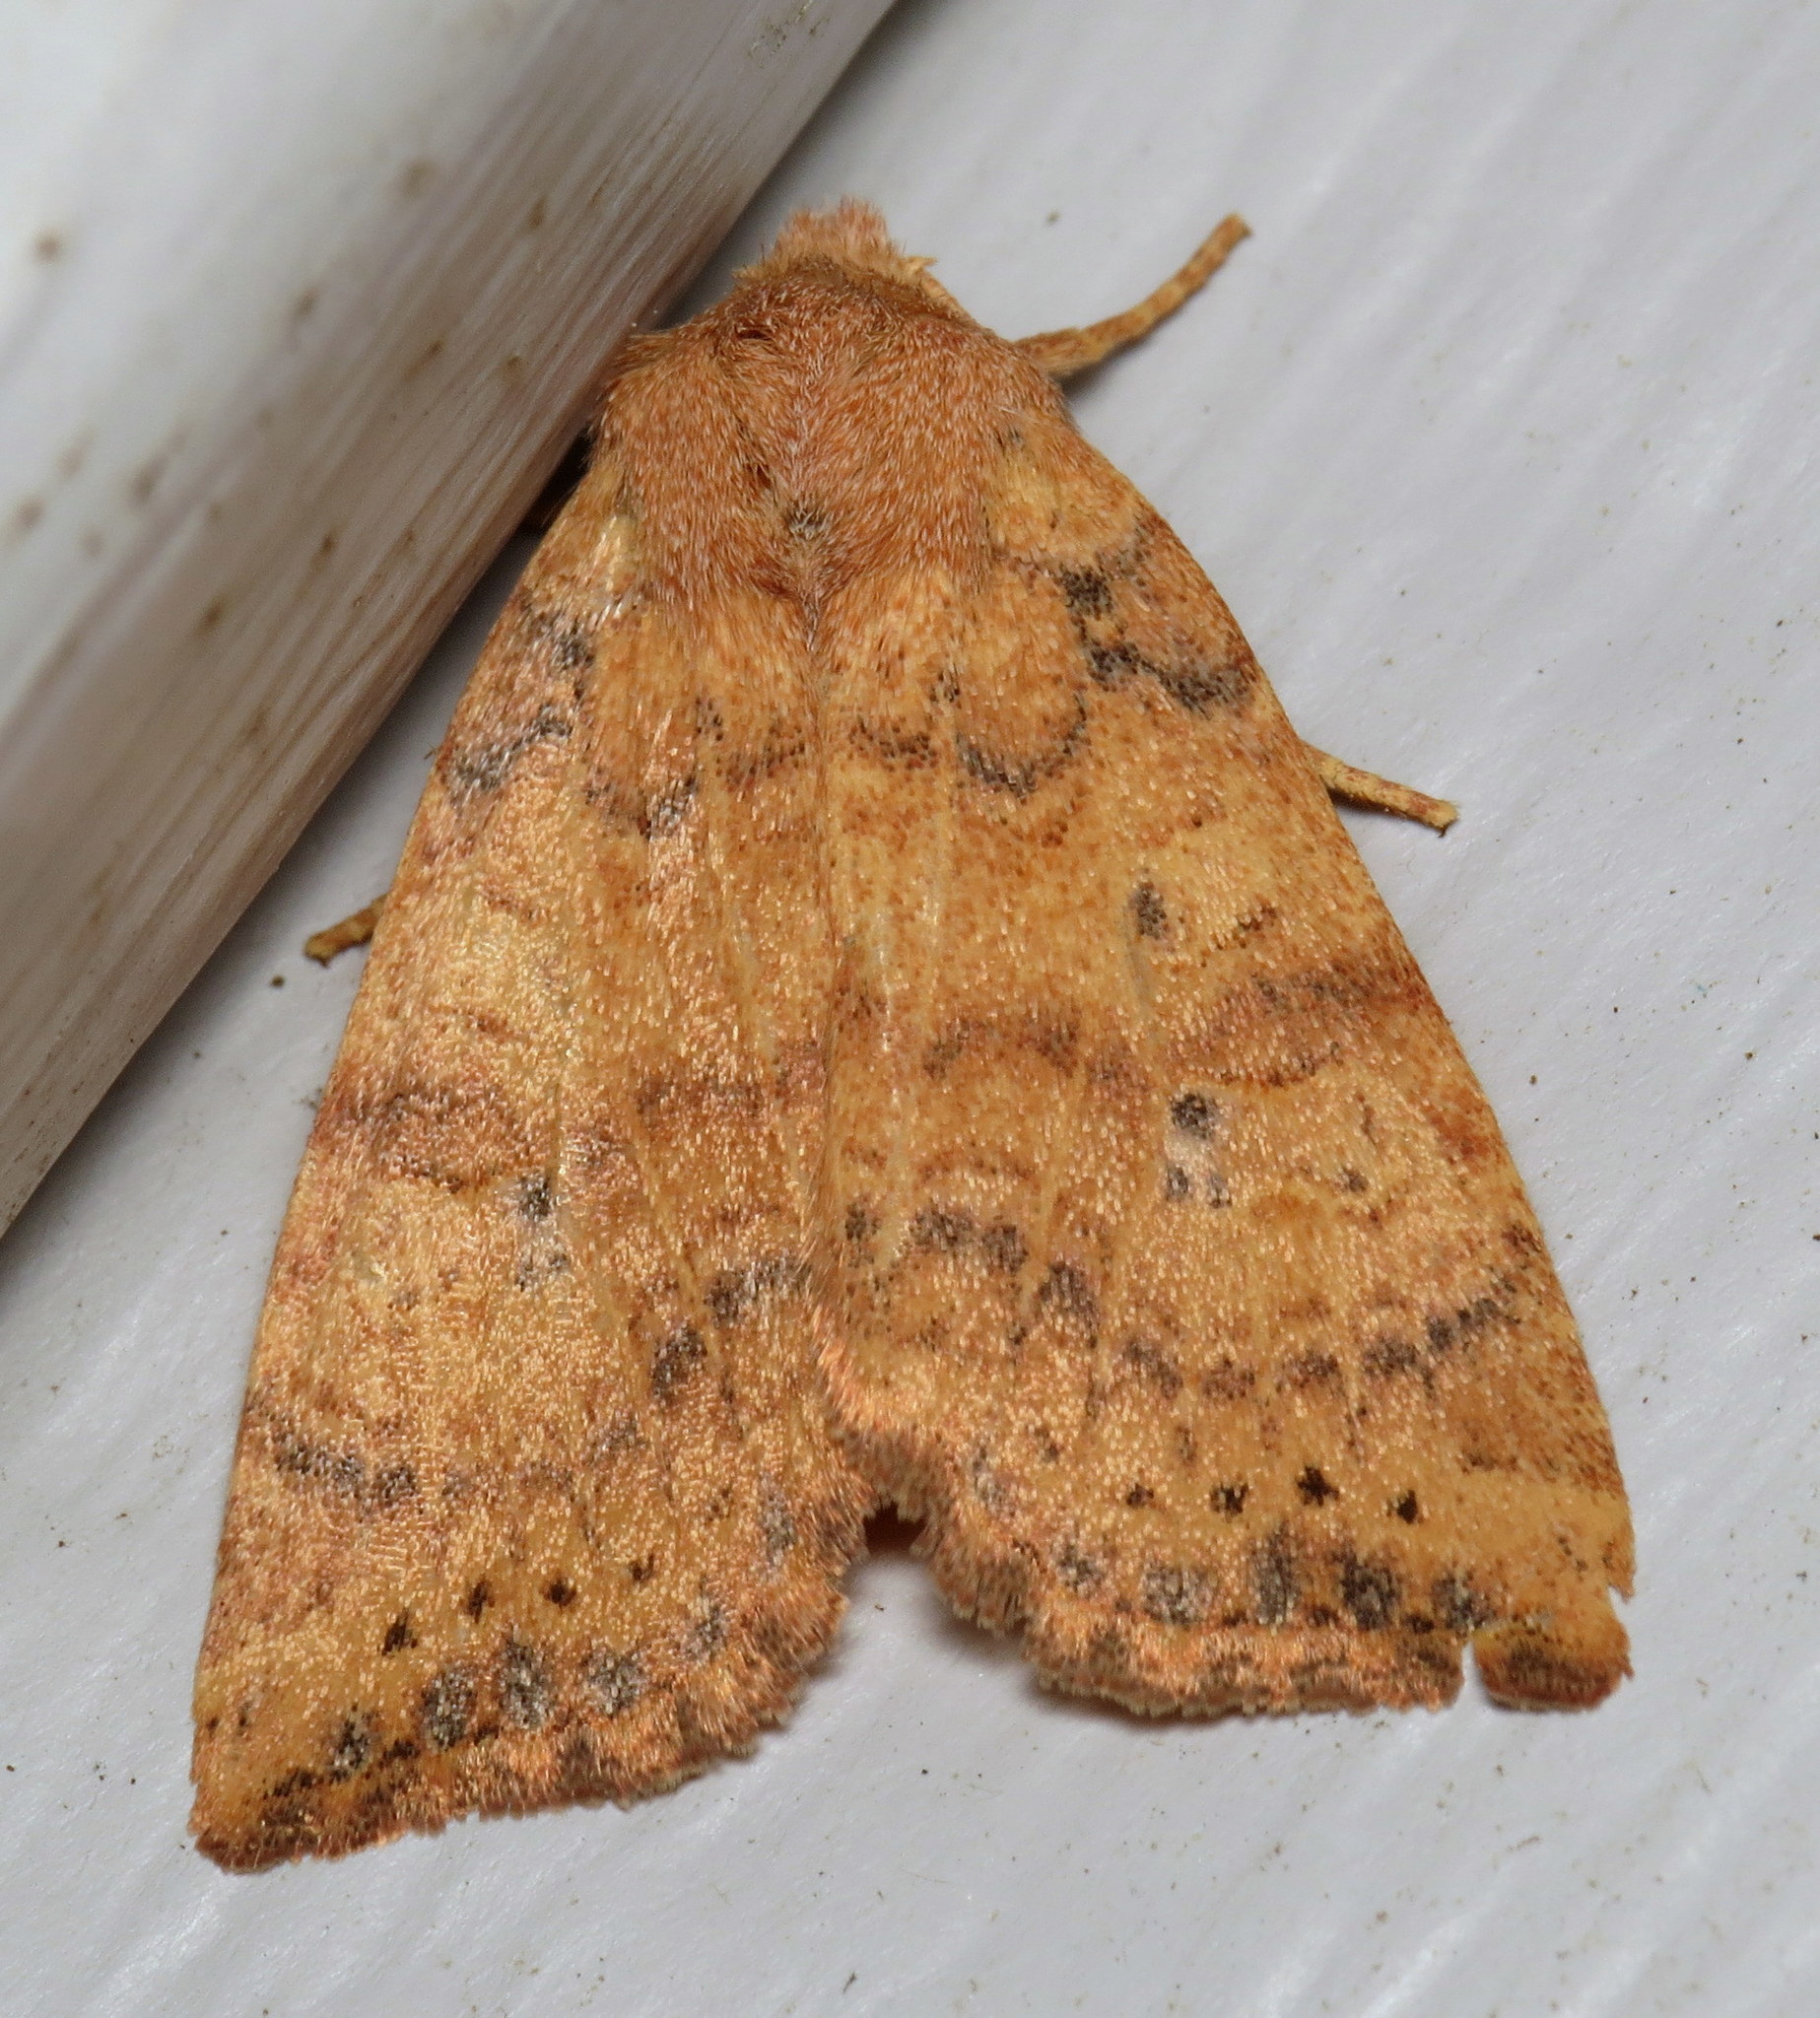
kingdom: Animalia
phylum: Arthropoda
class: Insecta
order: Lepidoptera
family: Noctuidae
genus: Anathix
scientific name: Anathix ralla
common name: Dotted sallow
